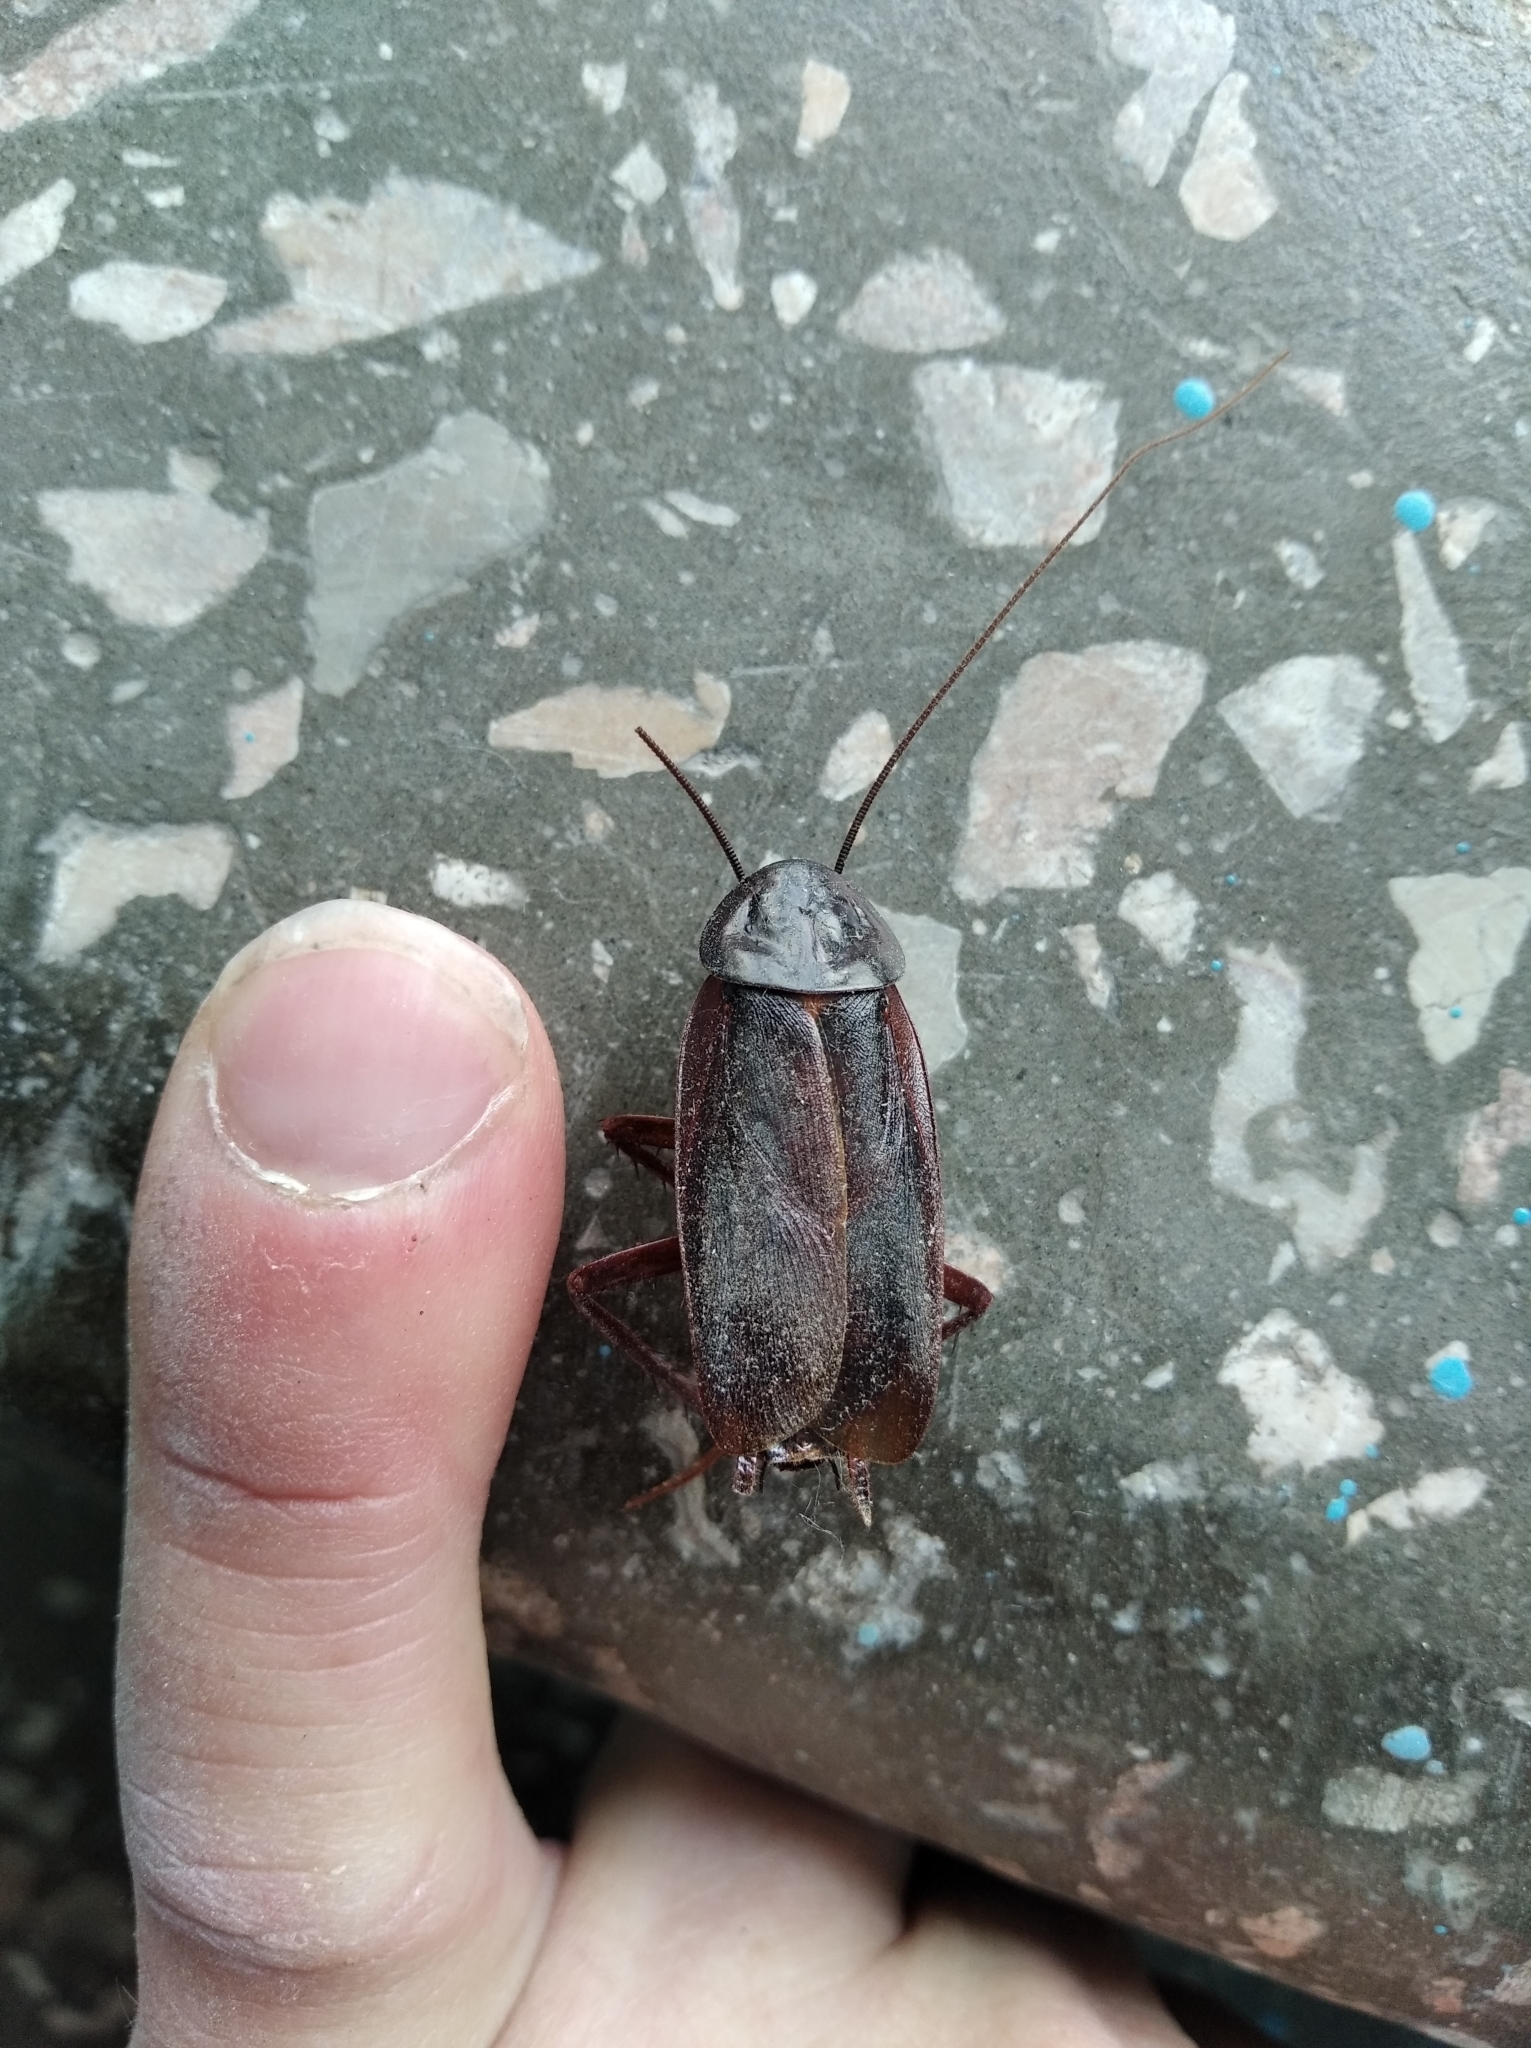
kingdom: Animalia
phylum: Arthropoda
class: Insecta
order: Blattodea
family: Blattidae
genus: Blatta
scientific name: Blatta orientalis
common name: Oriental cockroach
